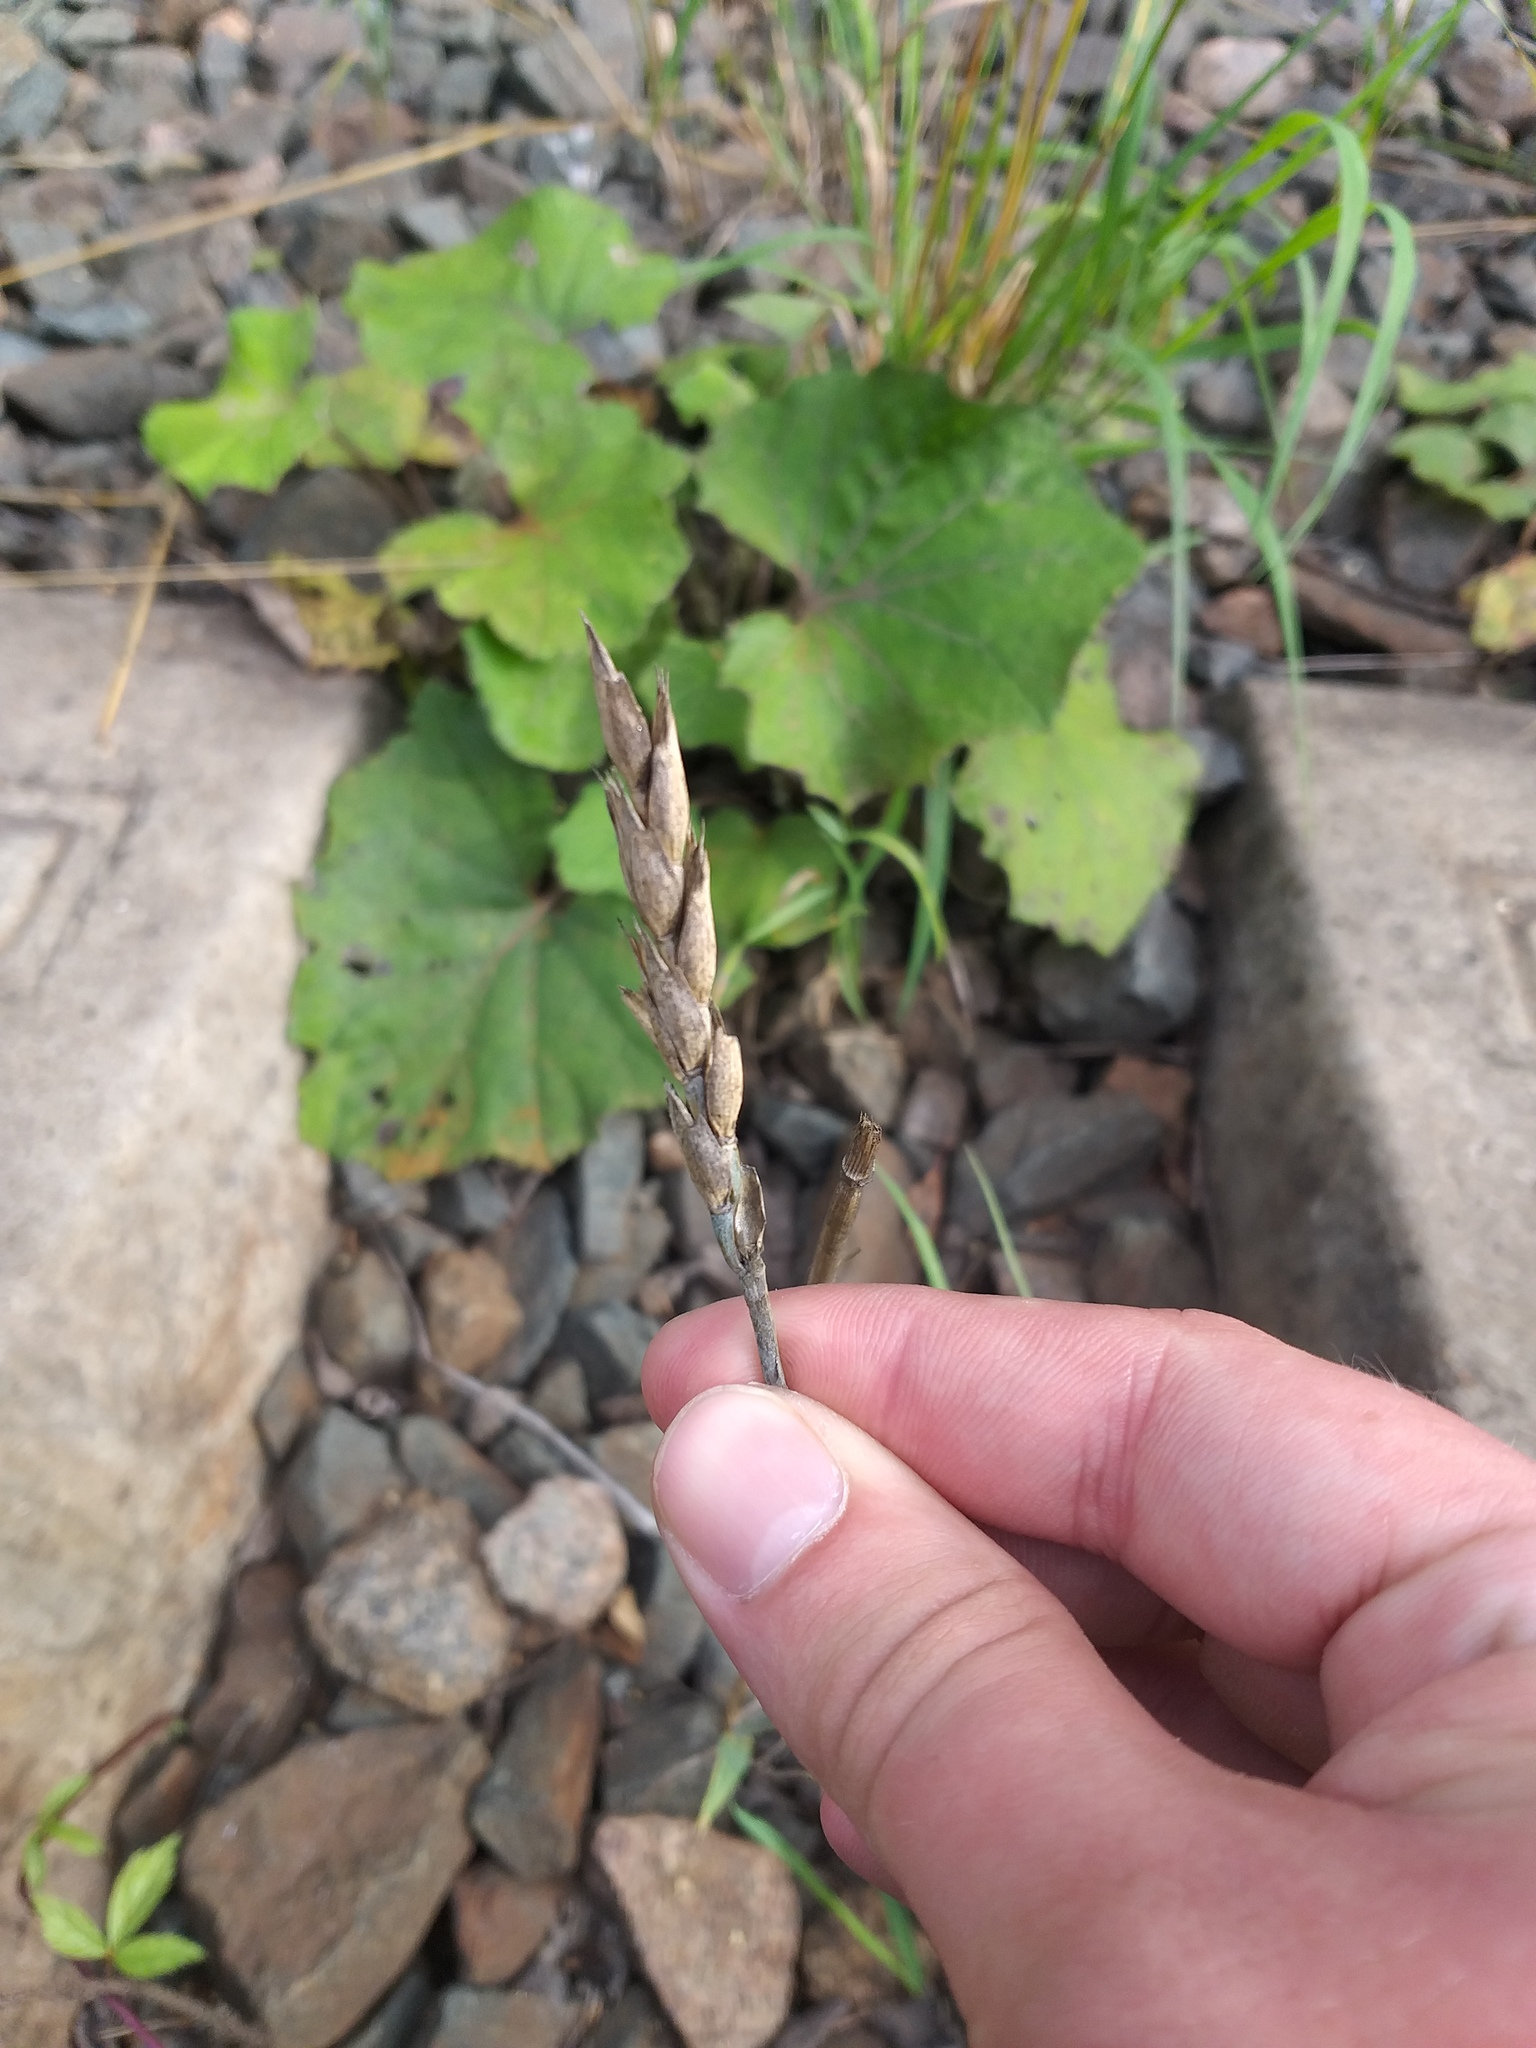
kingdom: Plantae
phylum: Tracheophyta
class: Liliopsida
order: Poales
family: Poaceae
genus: Triticum
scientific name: Triticum aestivum
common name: Common wheat
